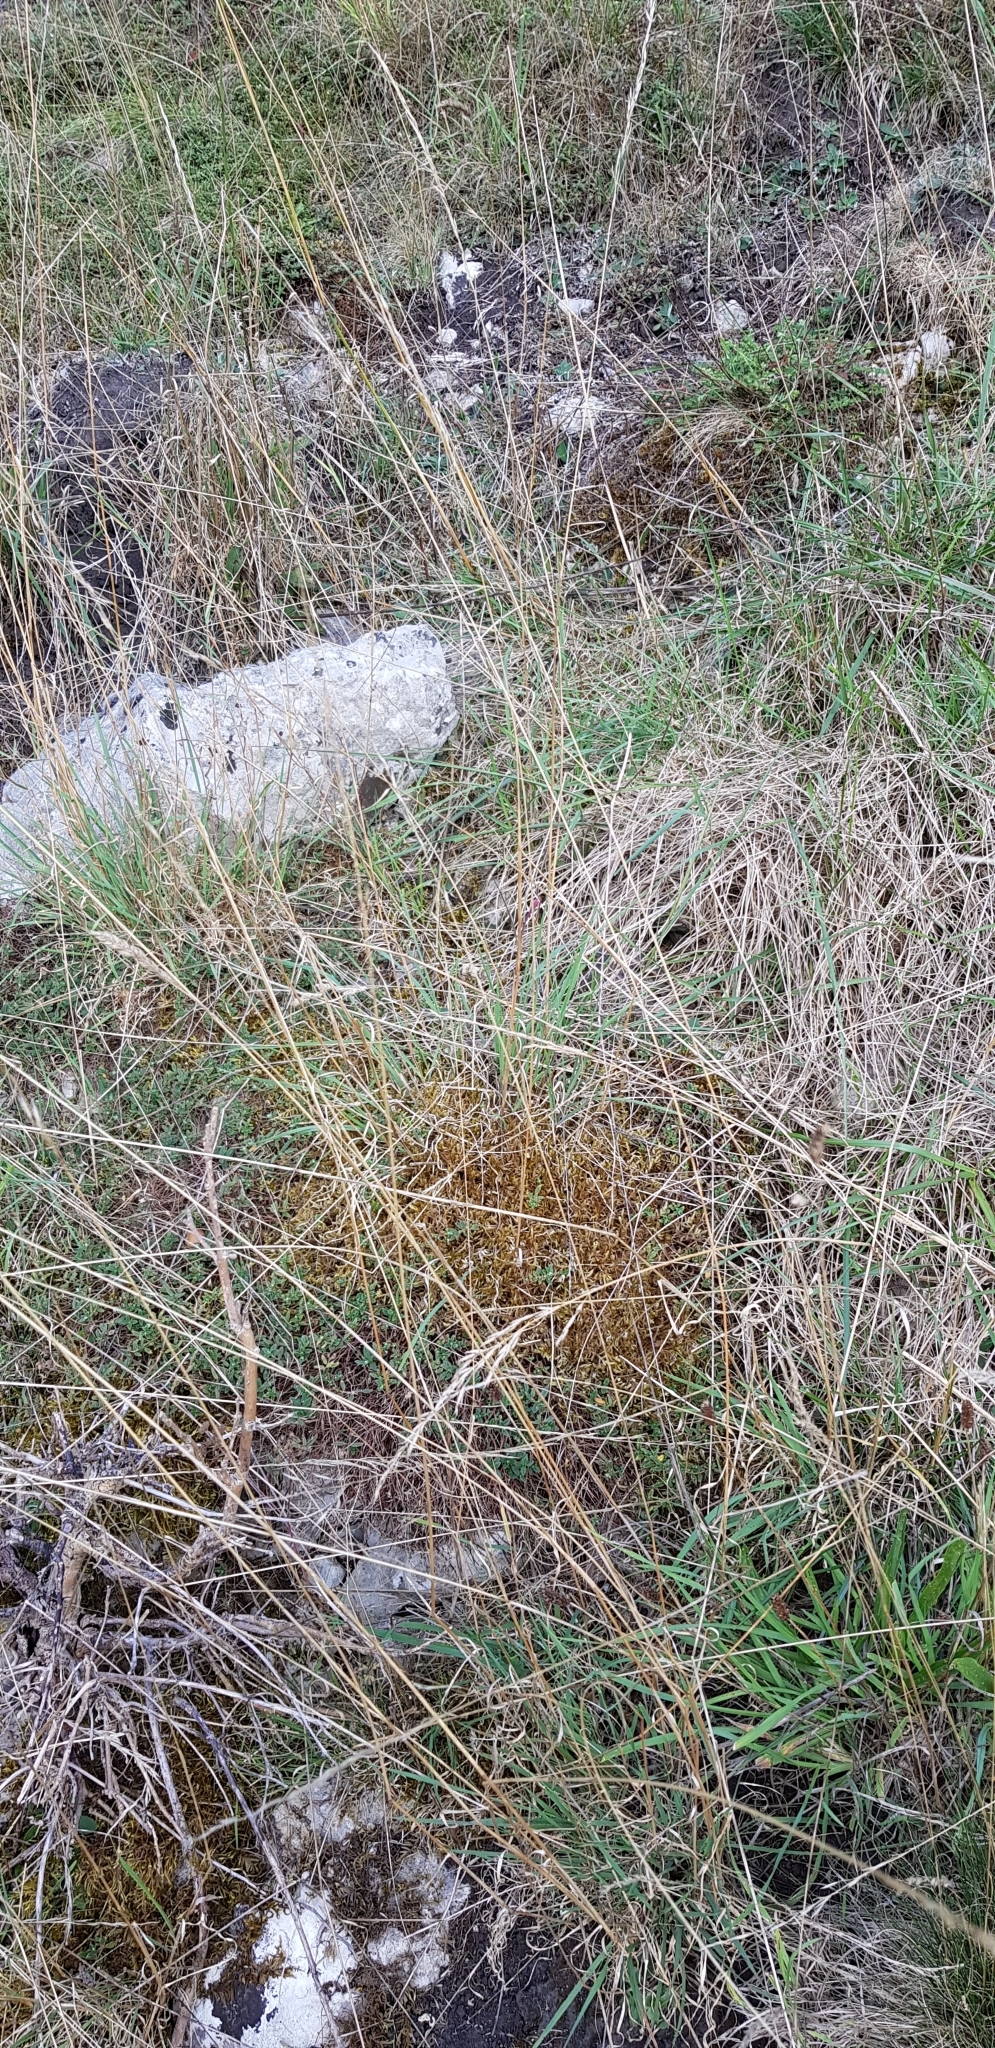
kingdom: Plantae
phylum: Bryophyta
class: Bryopsida
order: Hypnales
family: Brachytheciaceae
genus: Pseudoscleropodium
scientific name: Pseudoscleropodium purum
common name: Neat feather-moss
